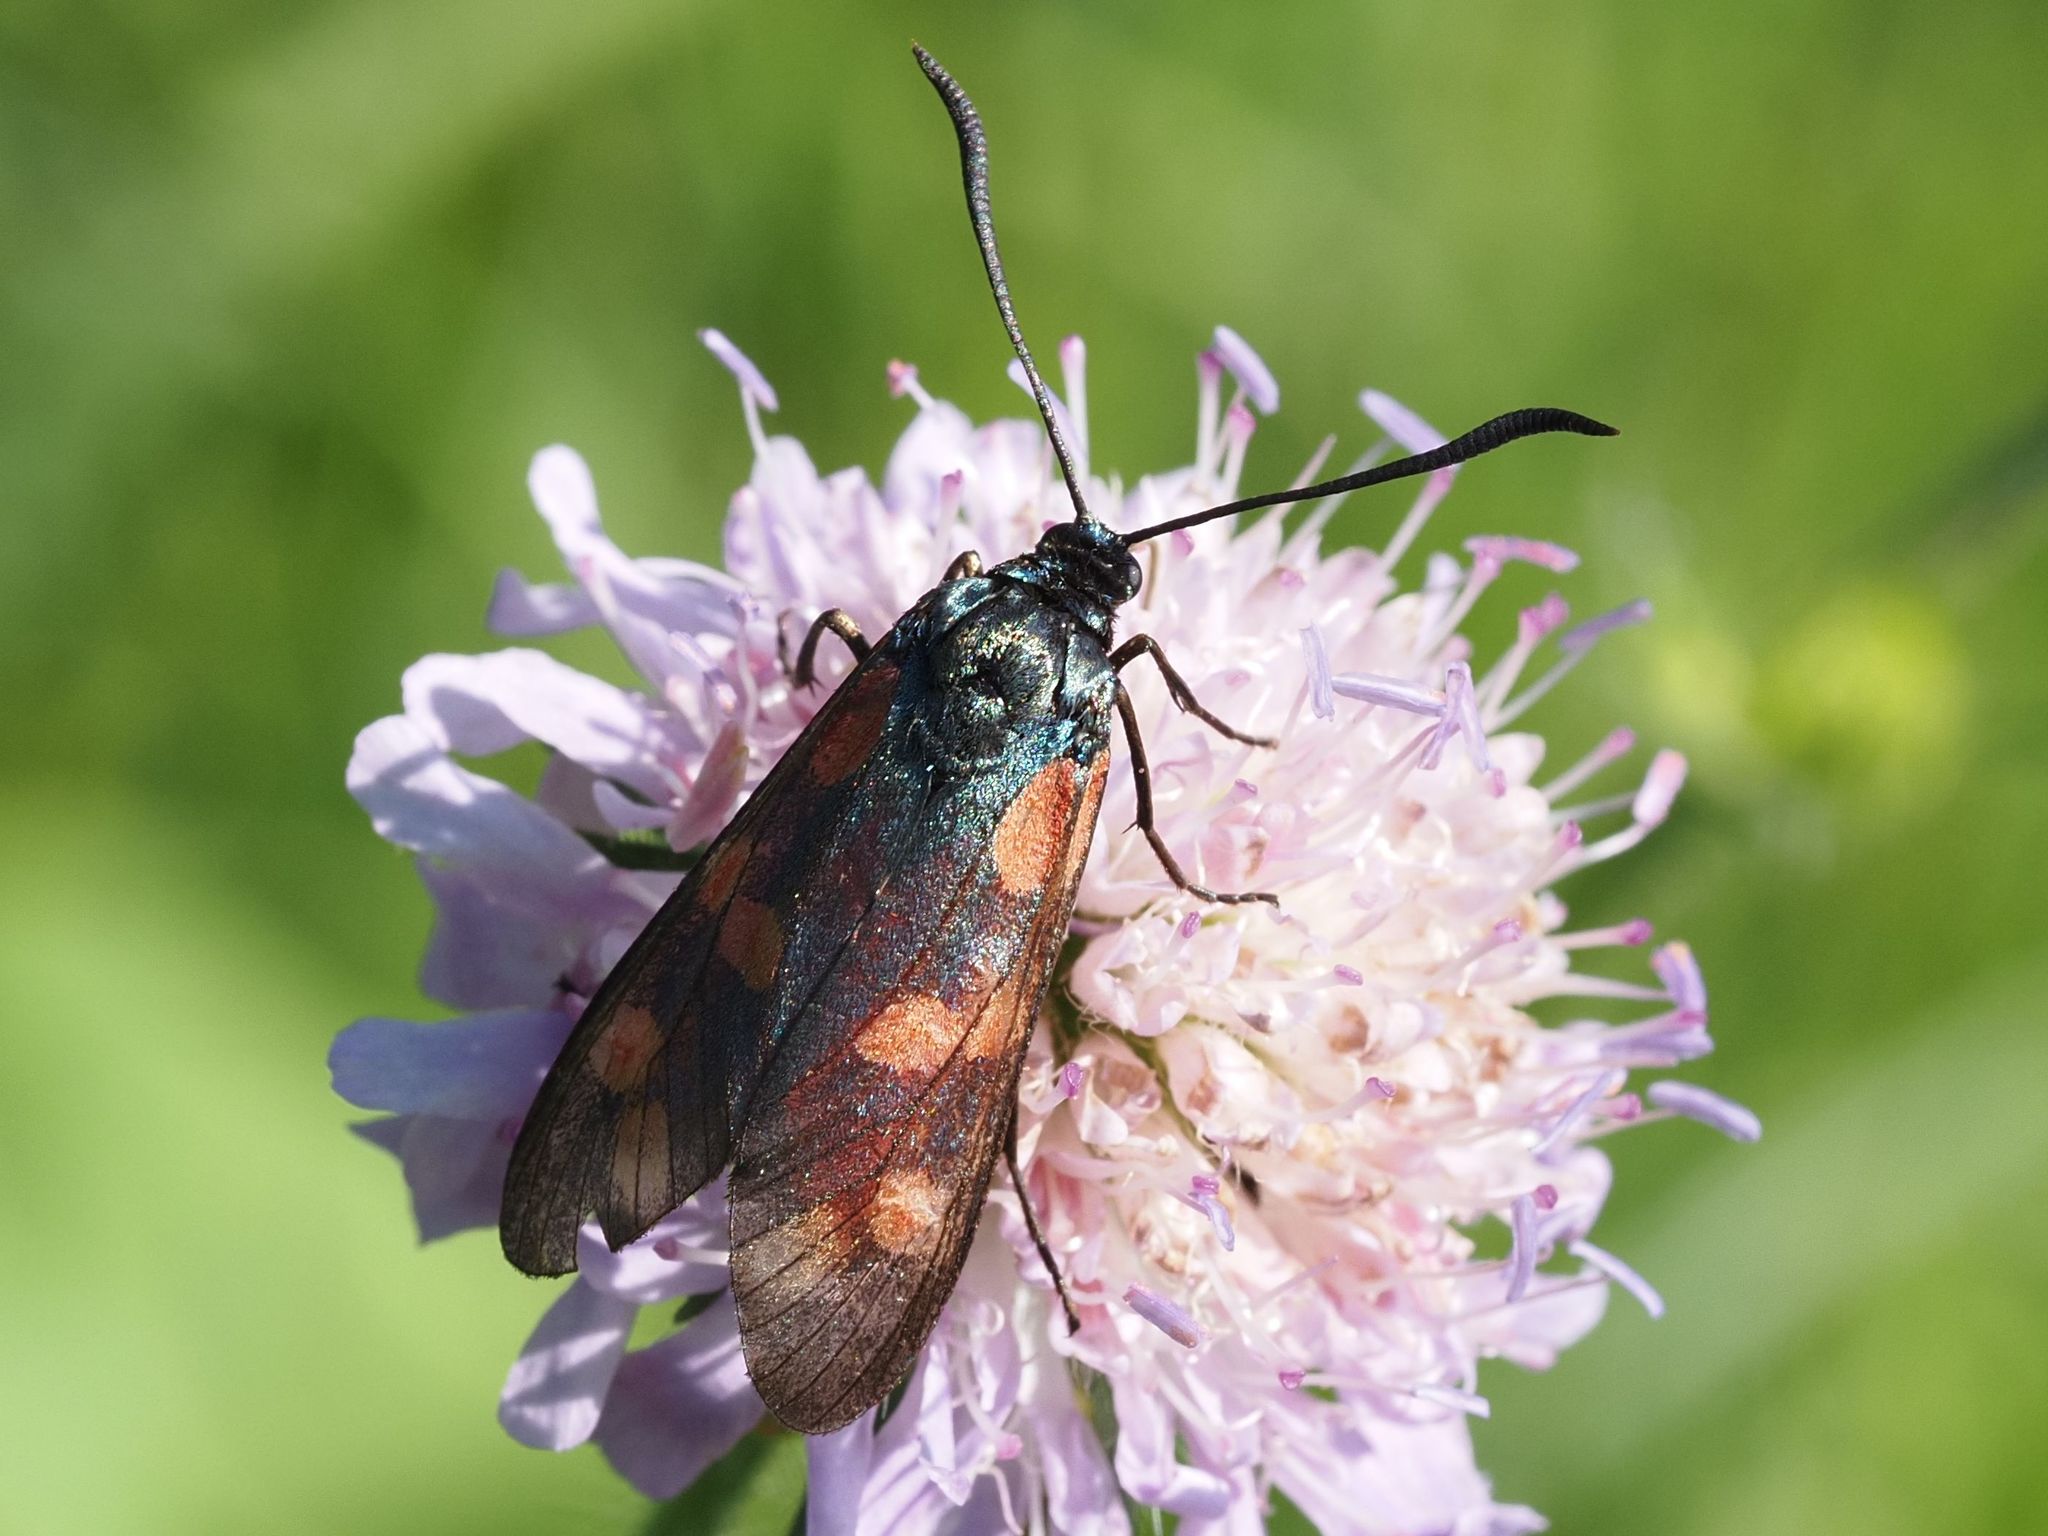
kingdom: Animalia
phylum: Arthropoda
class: Insecta
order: Lepidoptera
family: Zygaenidae
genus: Zygaena
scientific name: Zygaena filipendulae
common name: Six-spot burnet
